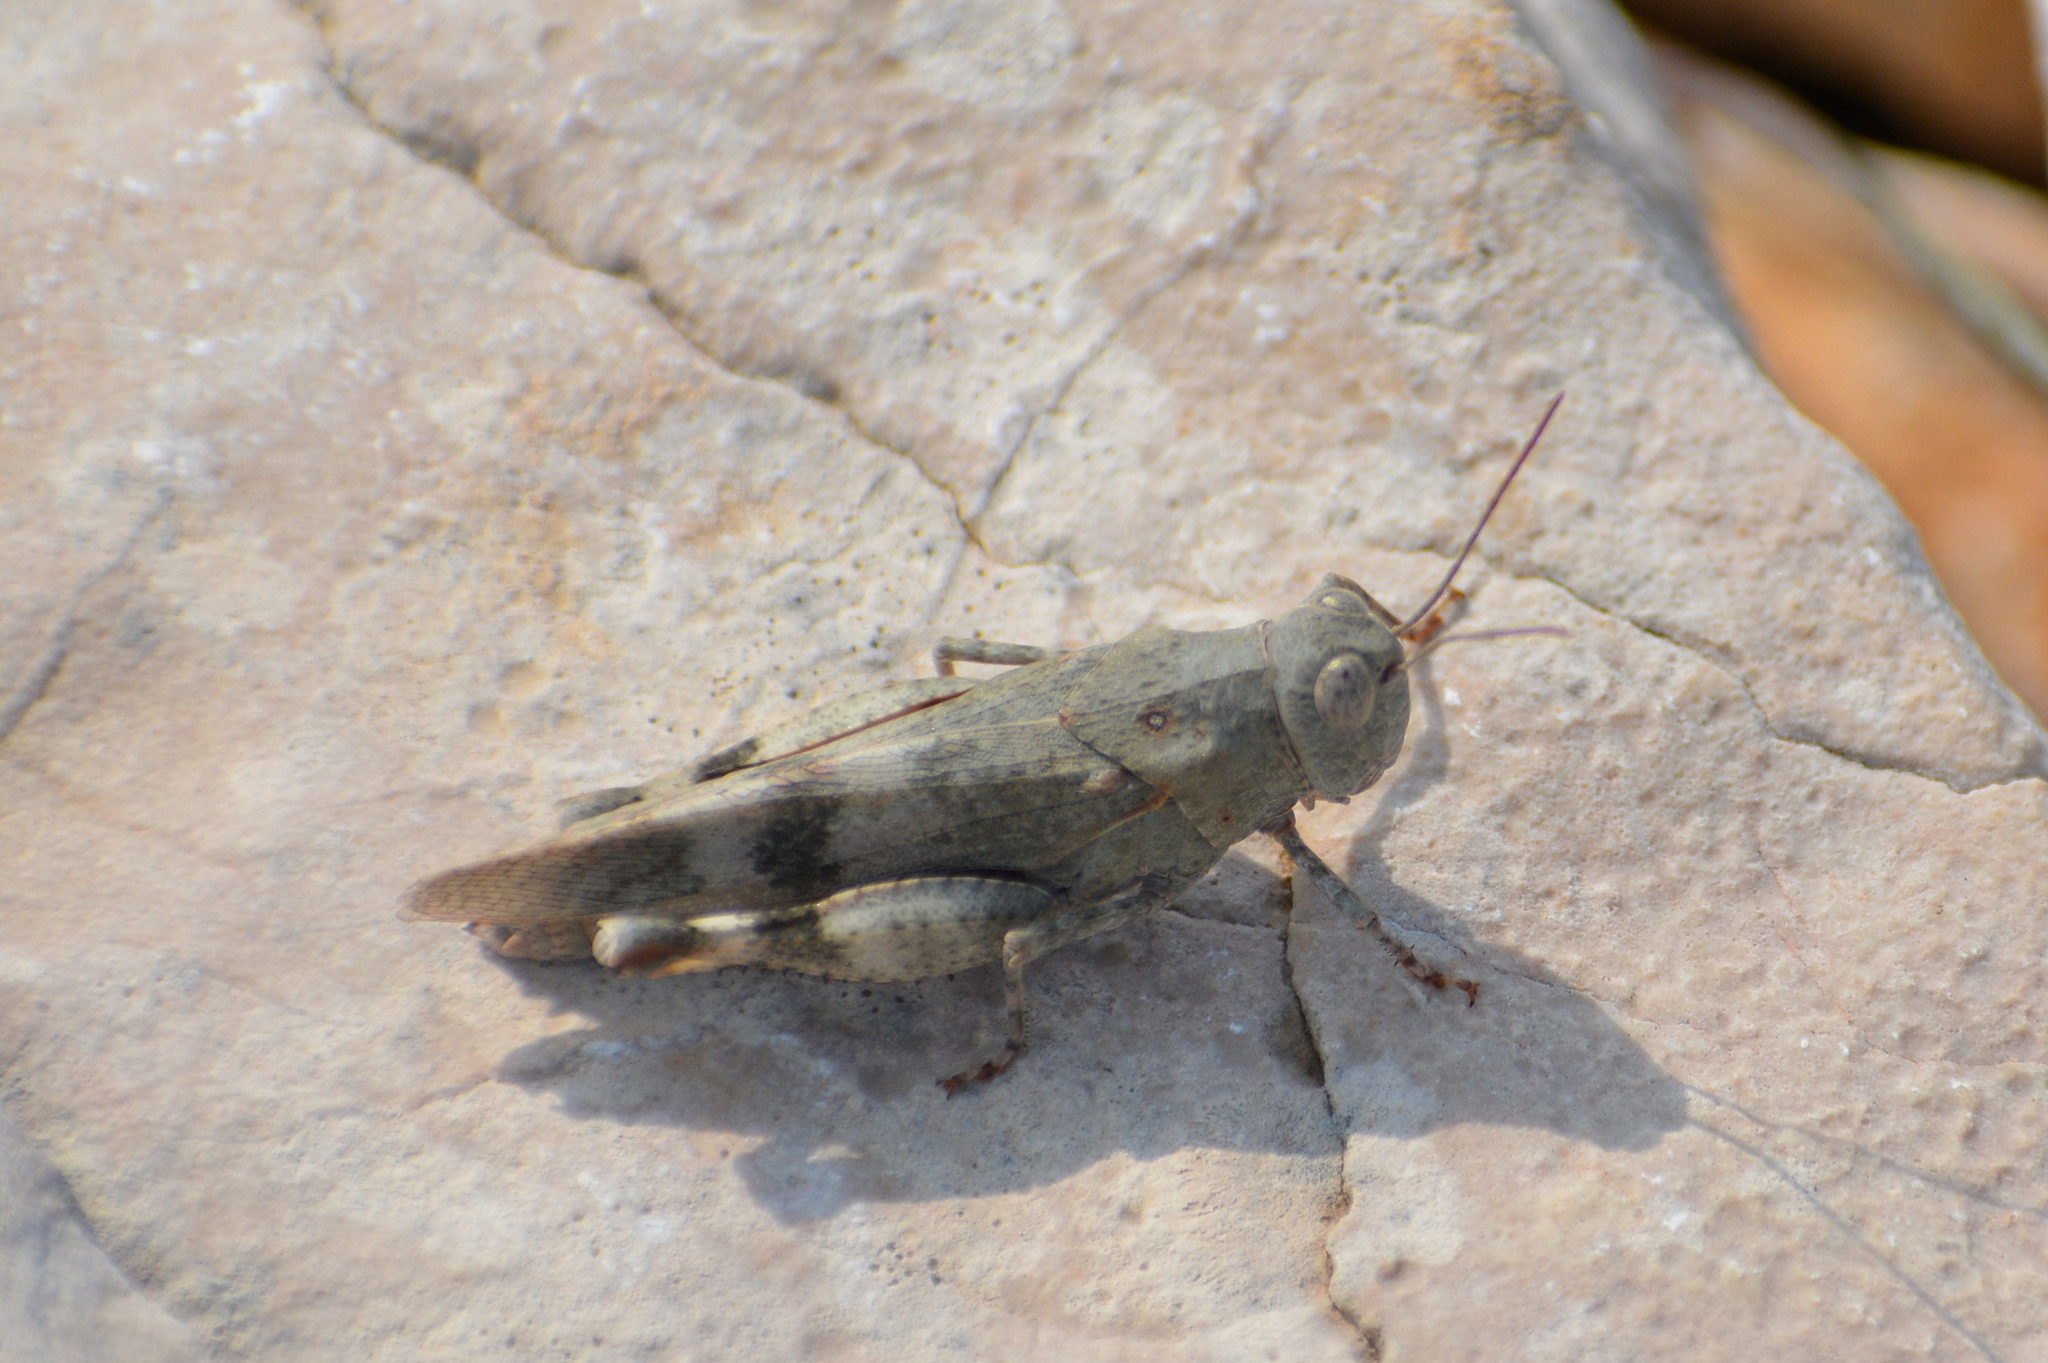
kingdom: Animalia
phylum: Arthropoda
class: Insecta
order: Orthoptera
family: Acrididae
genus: Oedipoda
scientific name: Oedipoda germanica
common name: Red band-winged grasshopper
